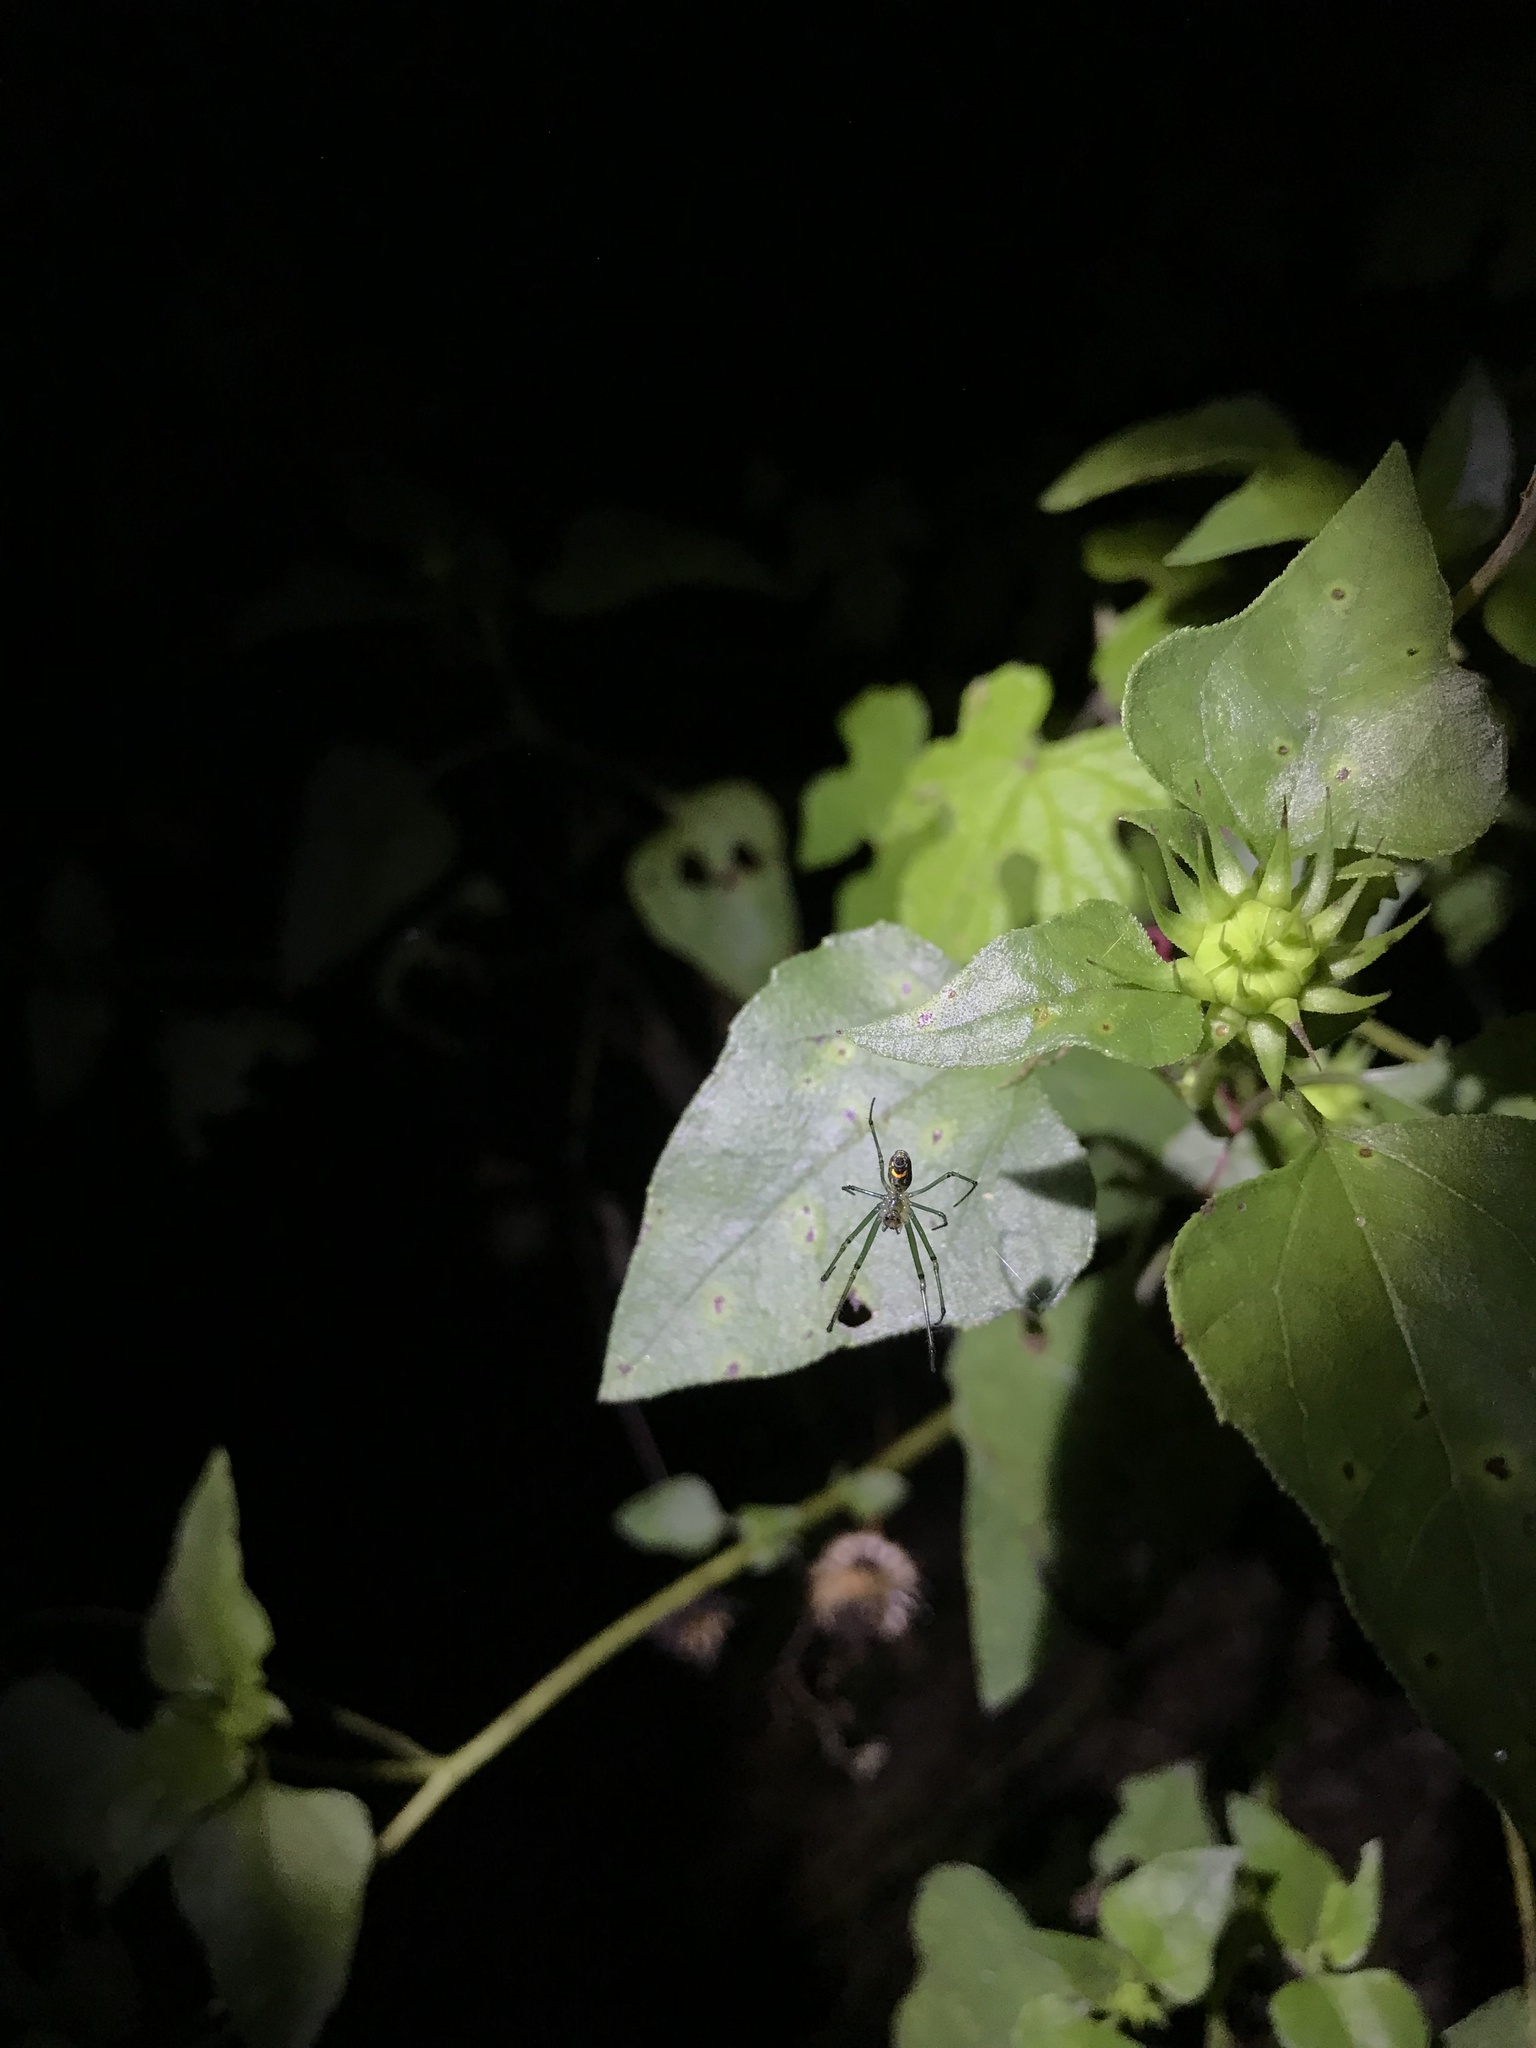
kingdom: Animalia
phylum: Arthropoda
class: Arachnida
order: Araneae
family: Tetragnathidae
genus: Leucauge
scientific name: Leucauge venusta
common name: Longjawed orb weavers
